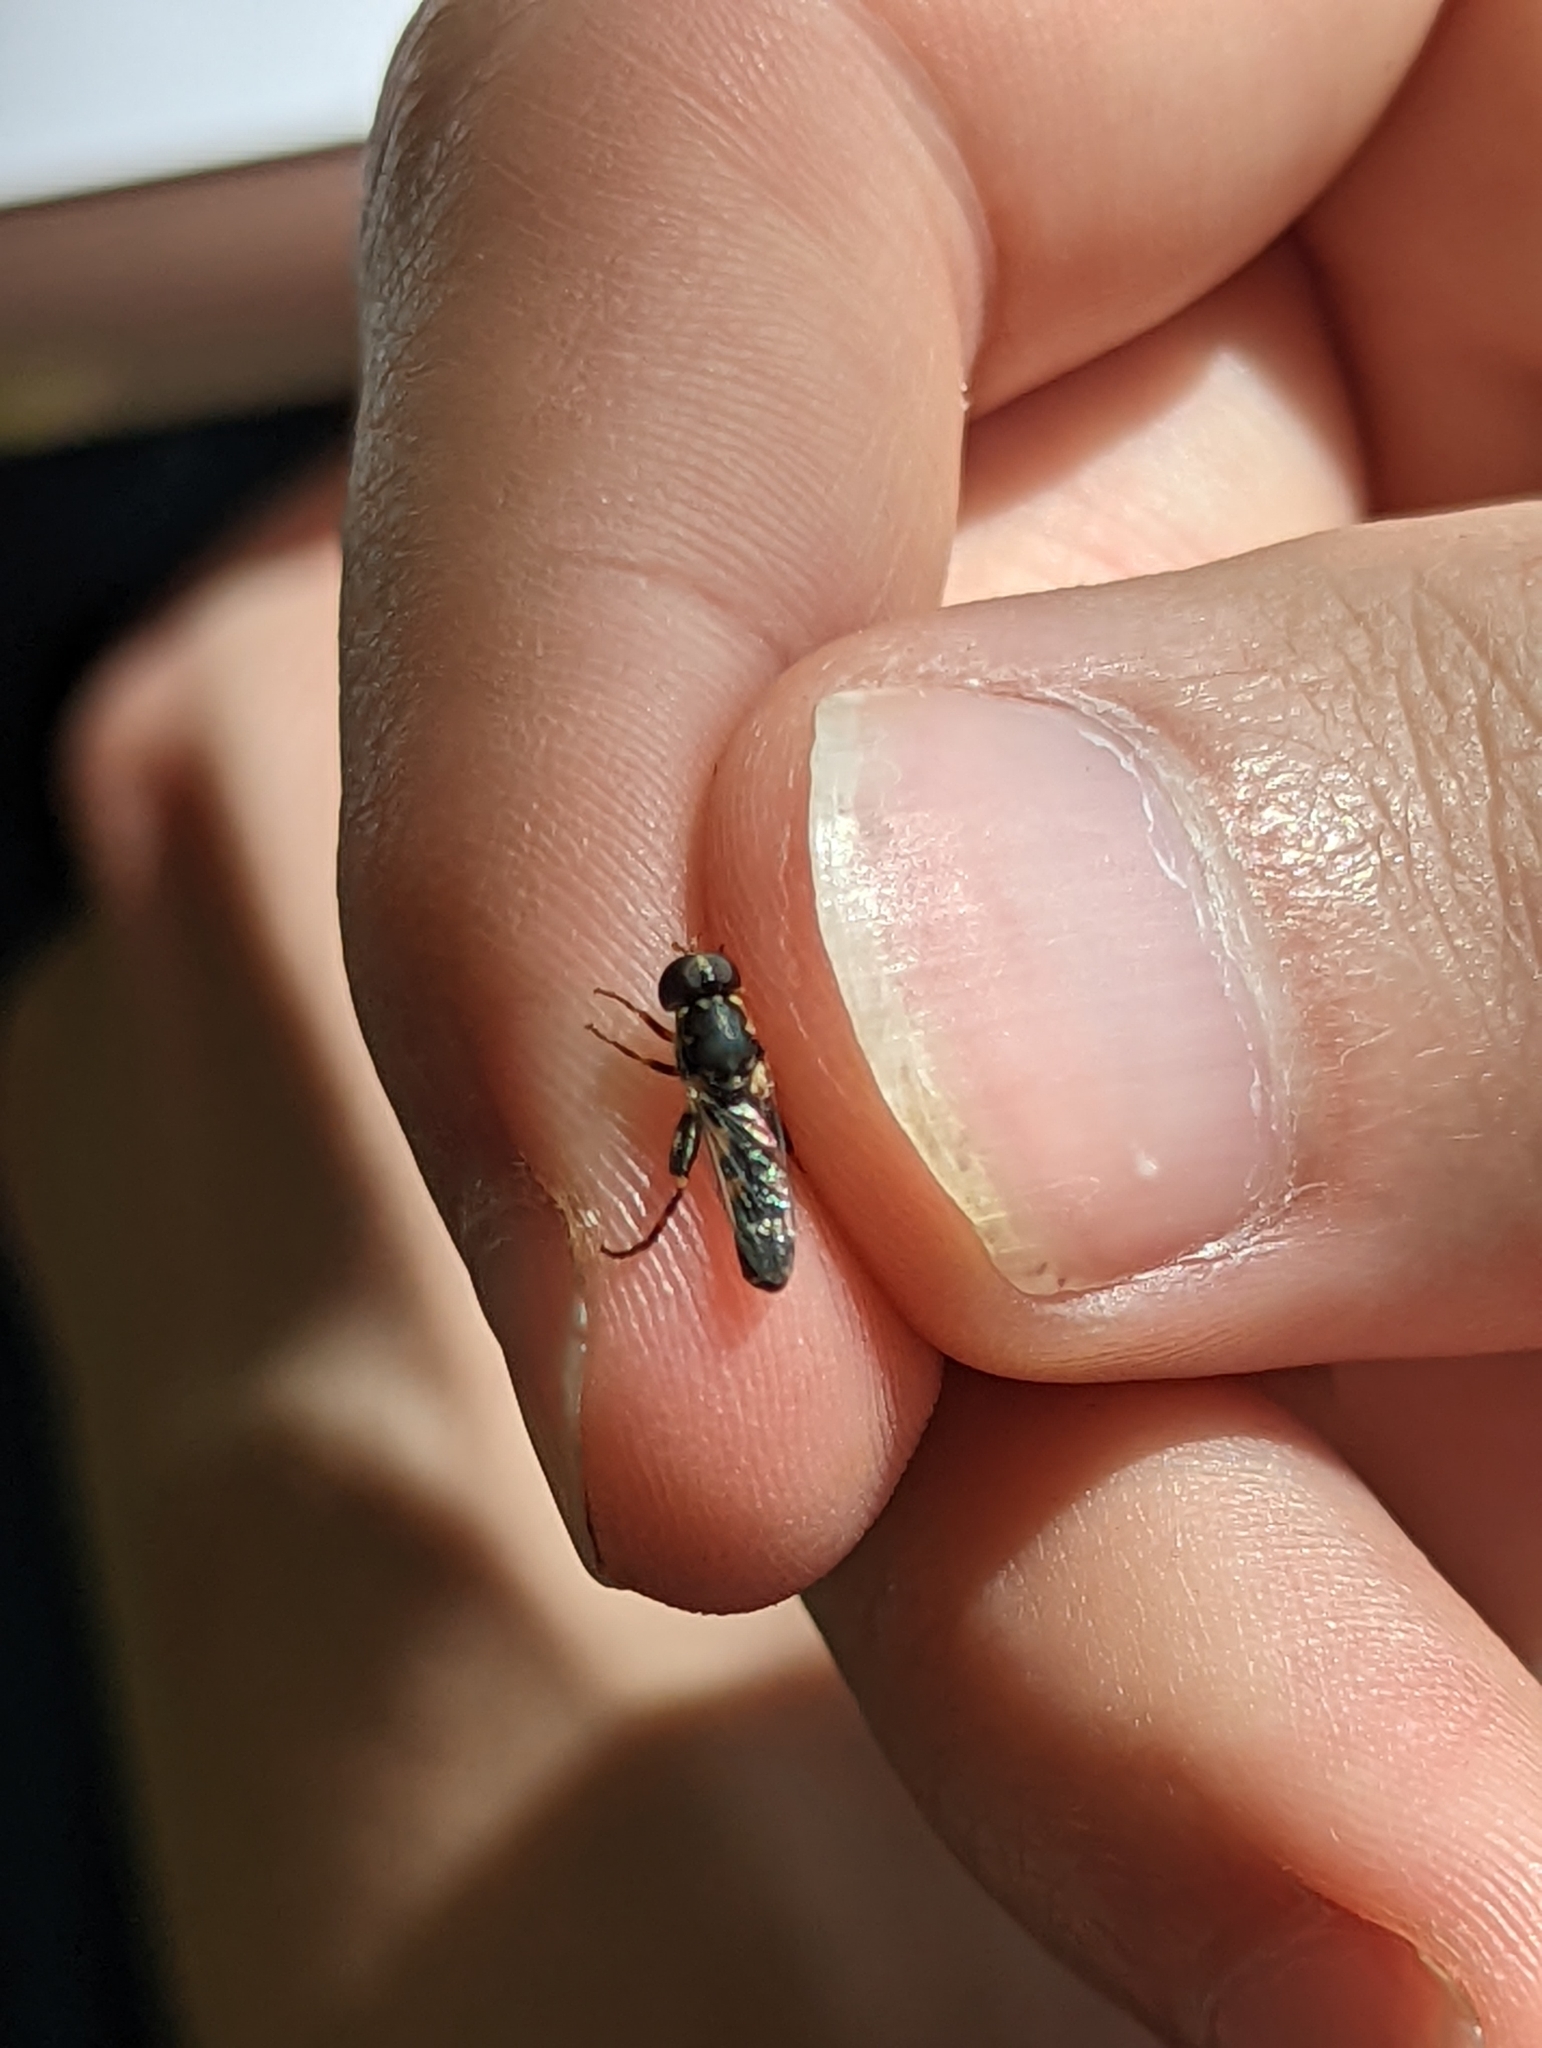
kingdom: Animalia
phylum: Arthropoda
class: Insecta
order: Diptera
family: Syrphidae
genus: Syritta
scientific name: Syritta pipiens
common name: Hover fly
